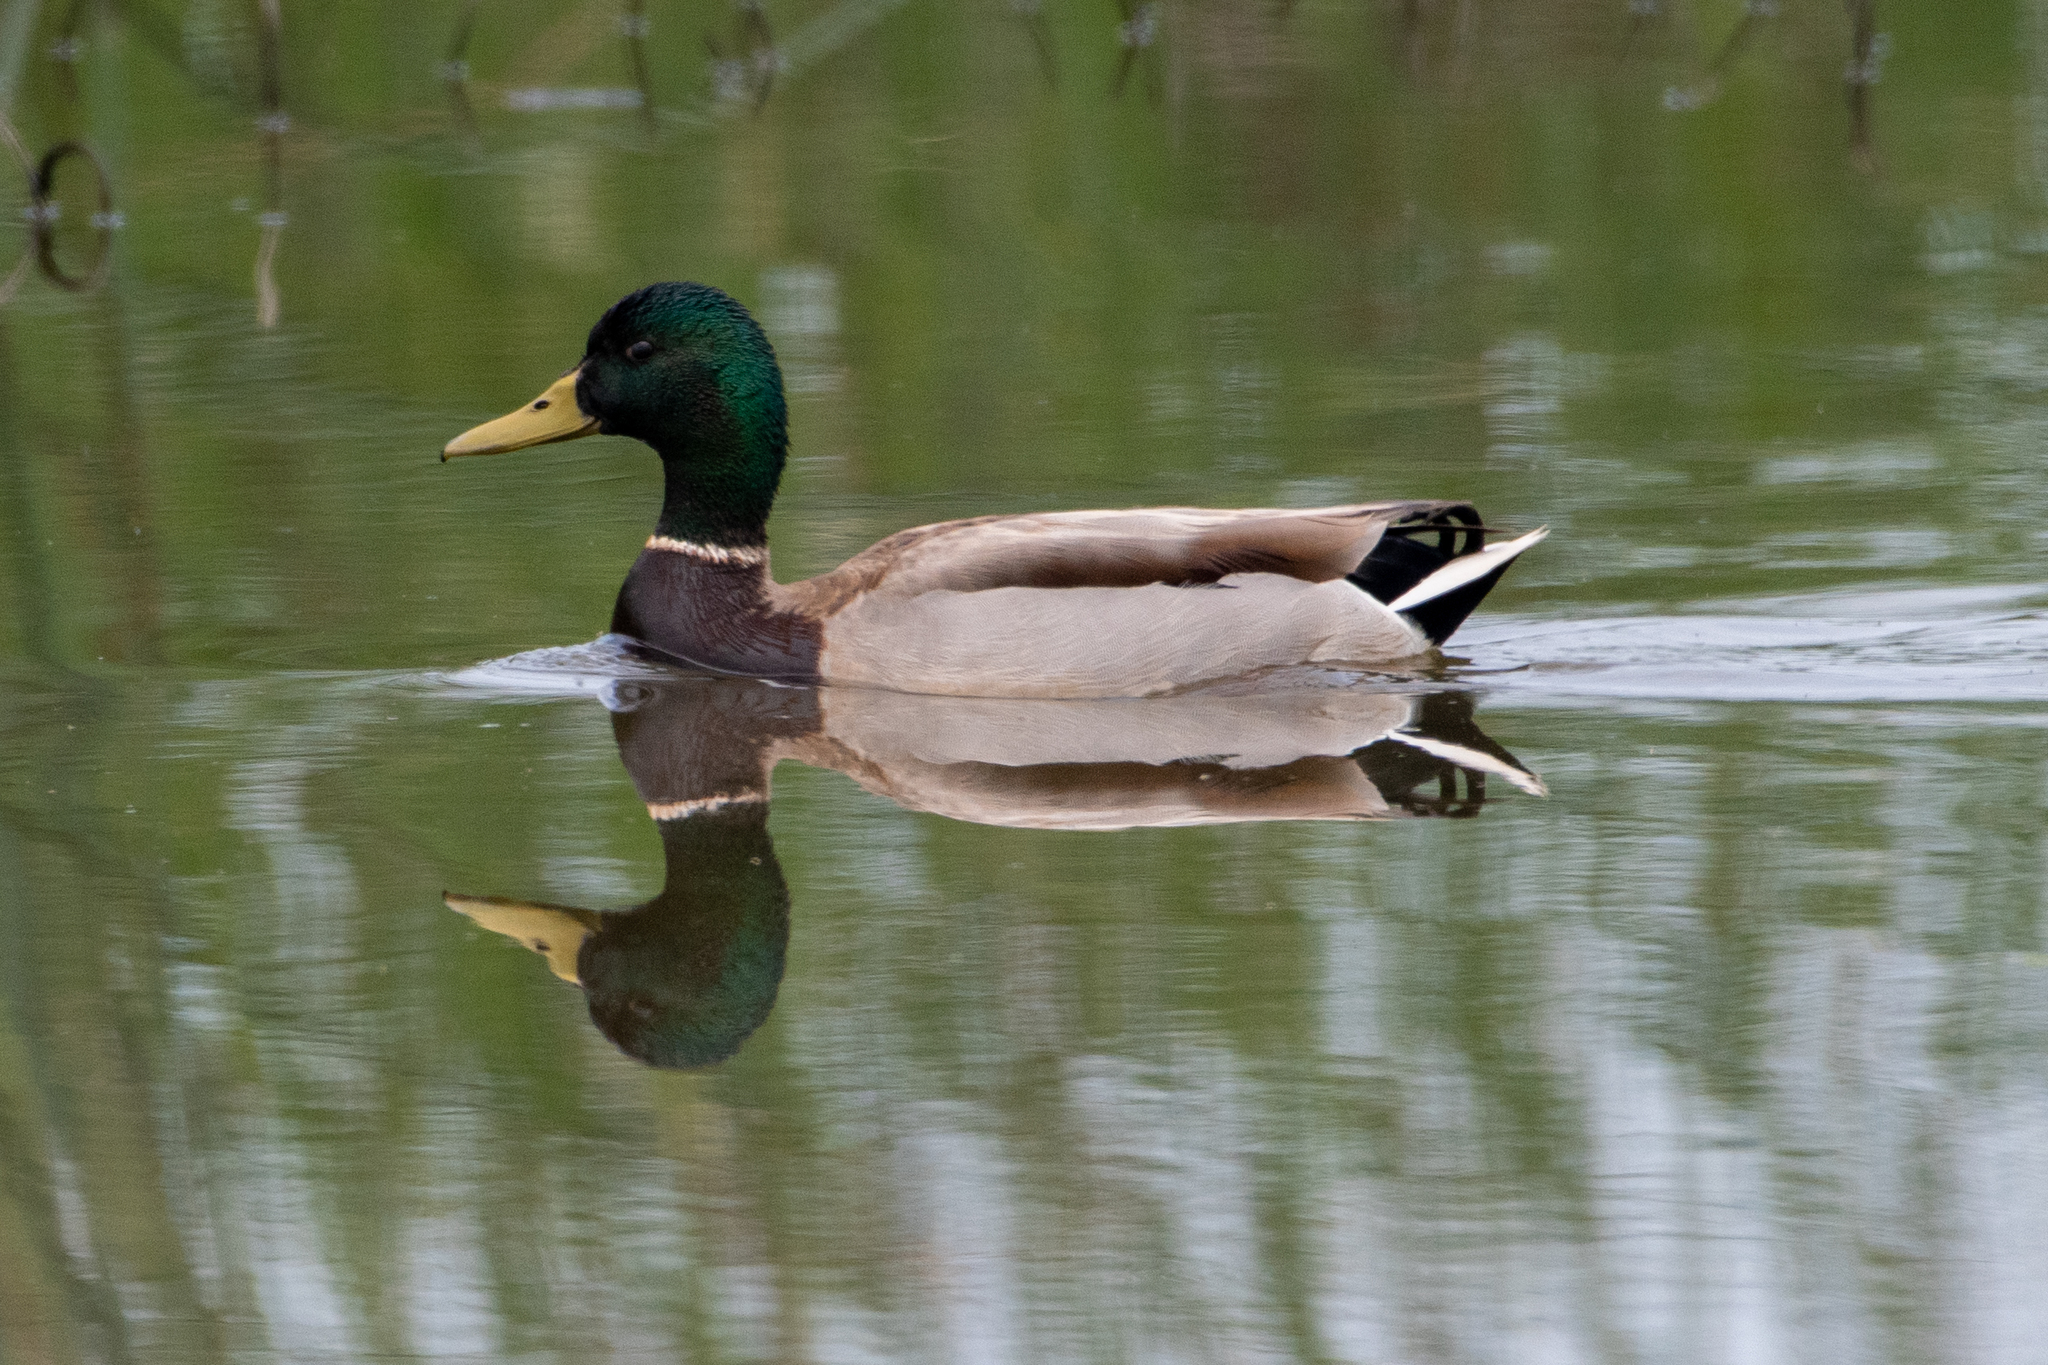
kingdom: Animalia
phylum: Chordata
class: Aves
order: Anseriformes
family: Anatidae
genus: Anas
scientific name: Anas platyrhynchos
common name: Mallard
